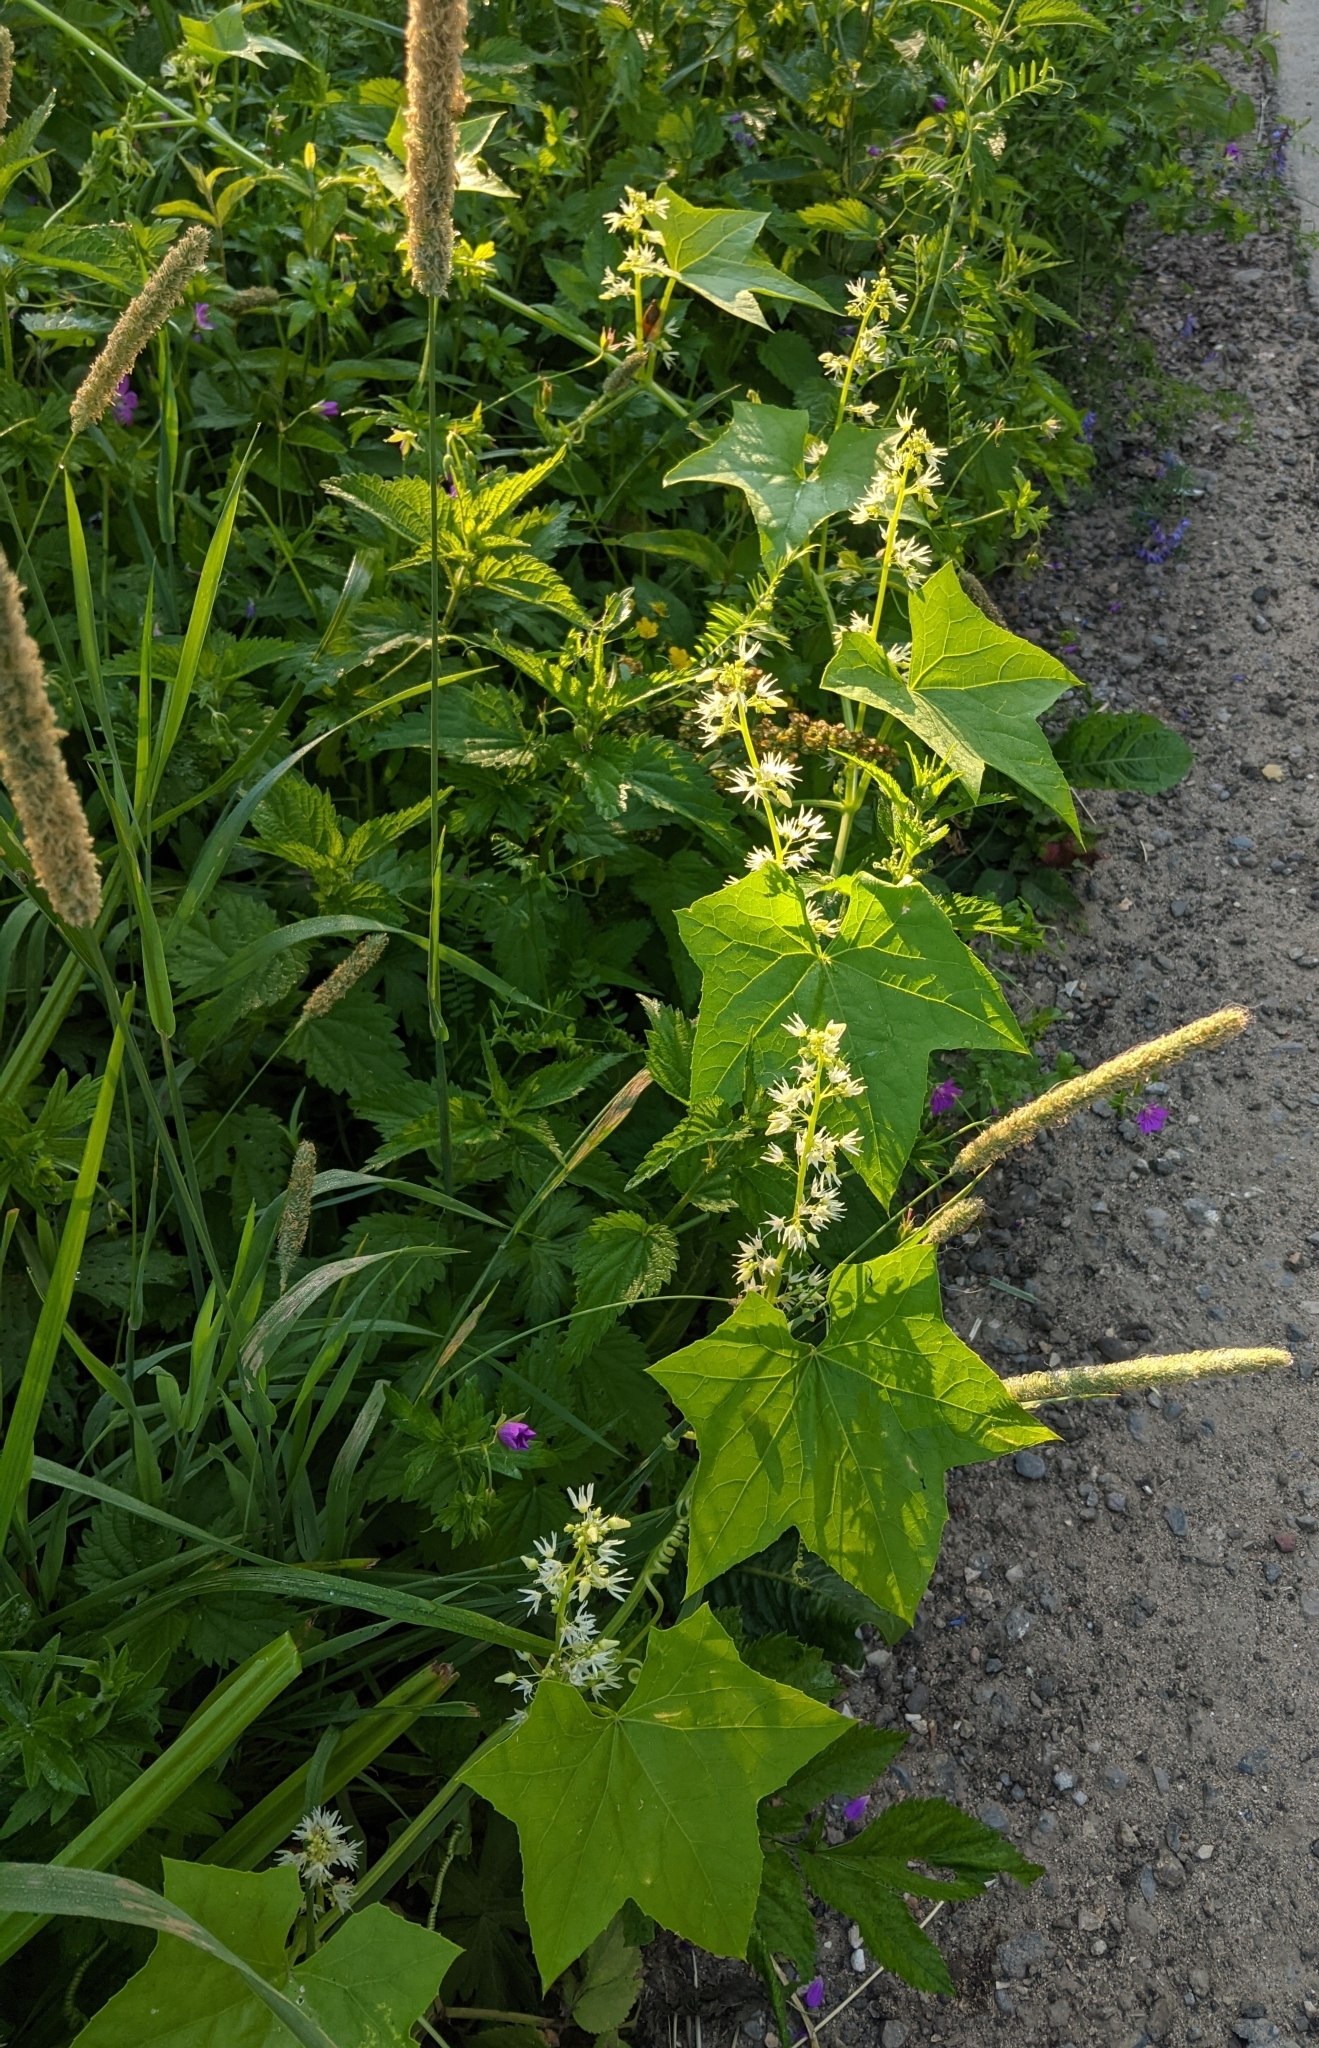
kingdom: Plantae
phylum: Tracheophyta
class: Magnoliopsida
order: Cucurbitales
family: Cucurbitaceae
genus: Echinocystis
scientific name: Echinocystis lobata
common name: Wild cucumber
